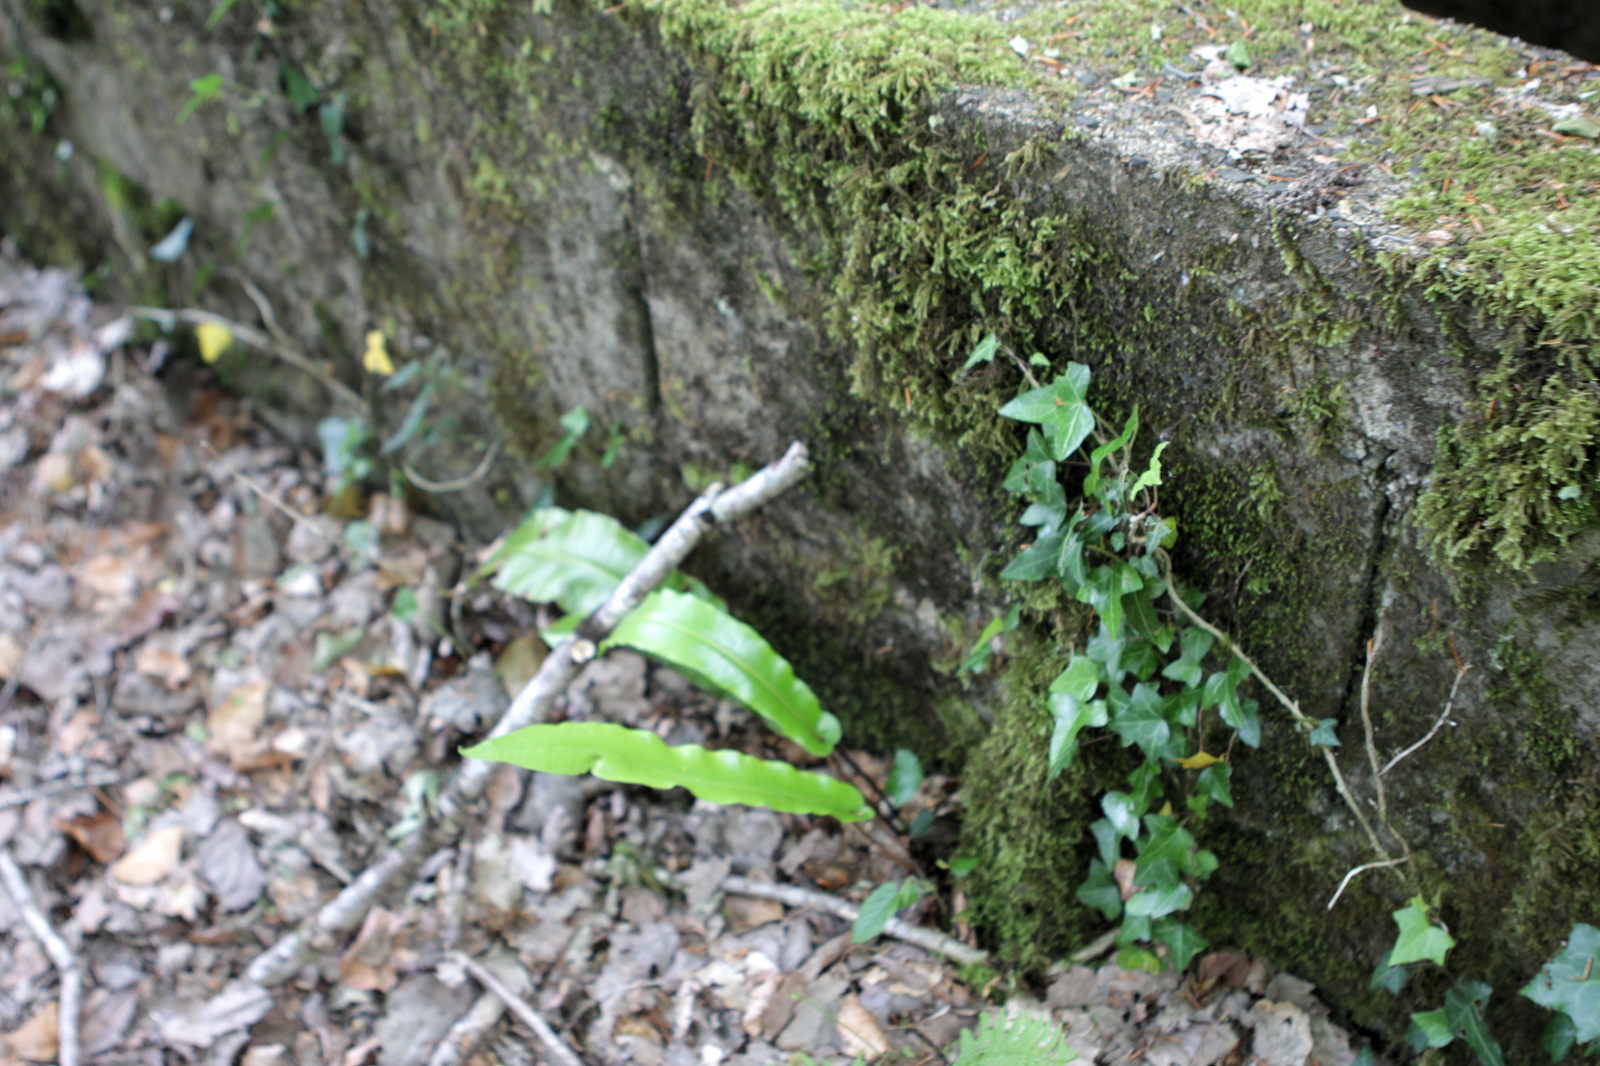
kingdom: Plantae
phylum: Tracheophyta
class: Polypodiopsida
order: Polypodiales
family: Aspleniaceae
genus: Asplenium
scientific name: Asplenium scolopendrium
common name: Hart's-tongue fern
